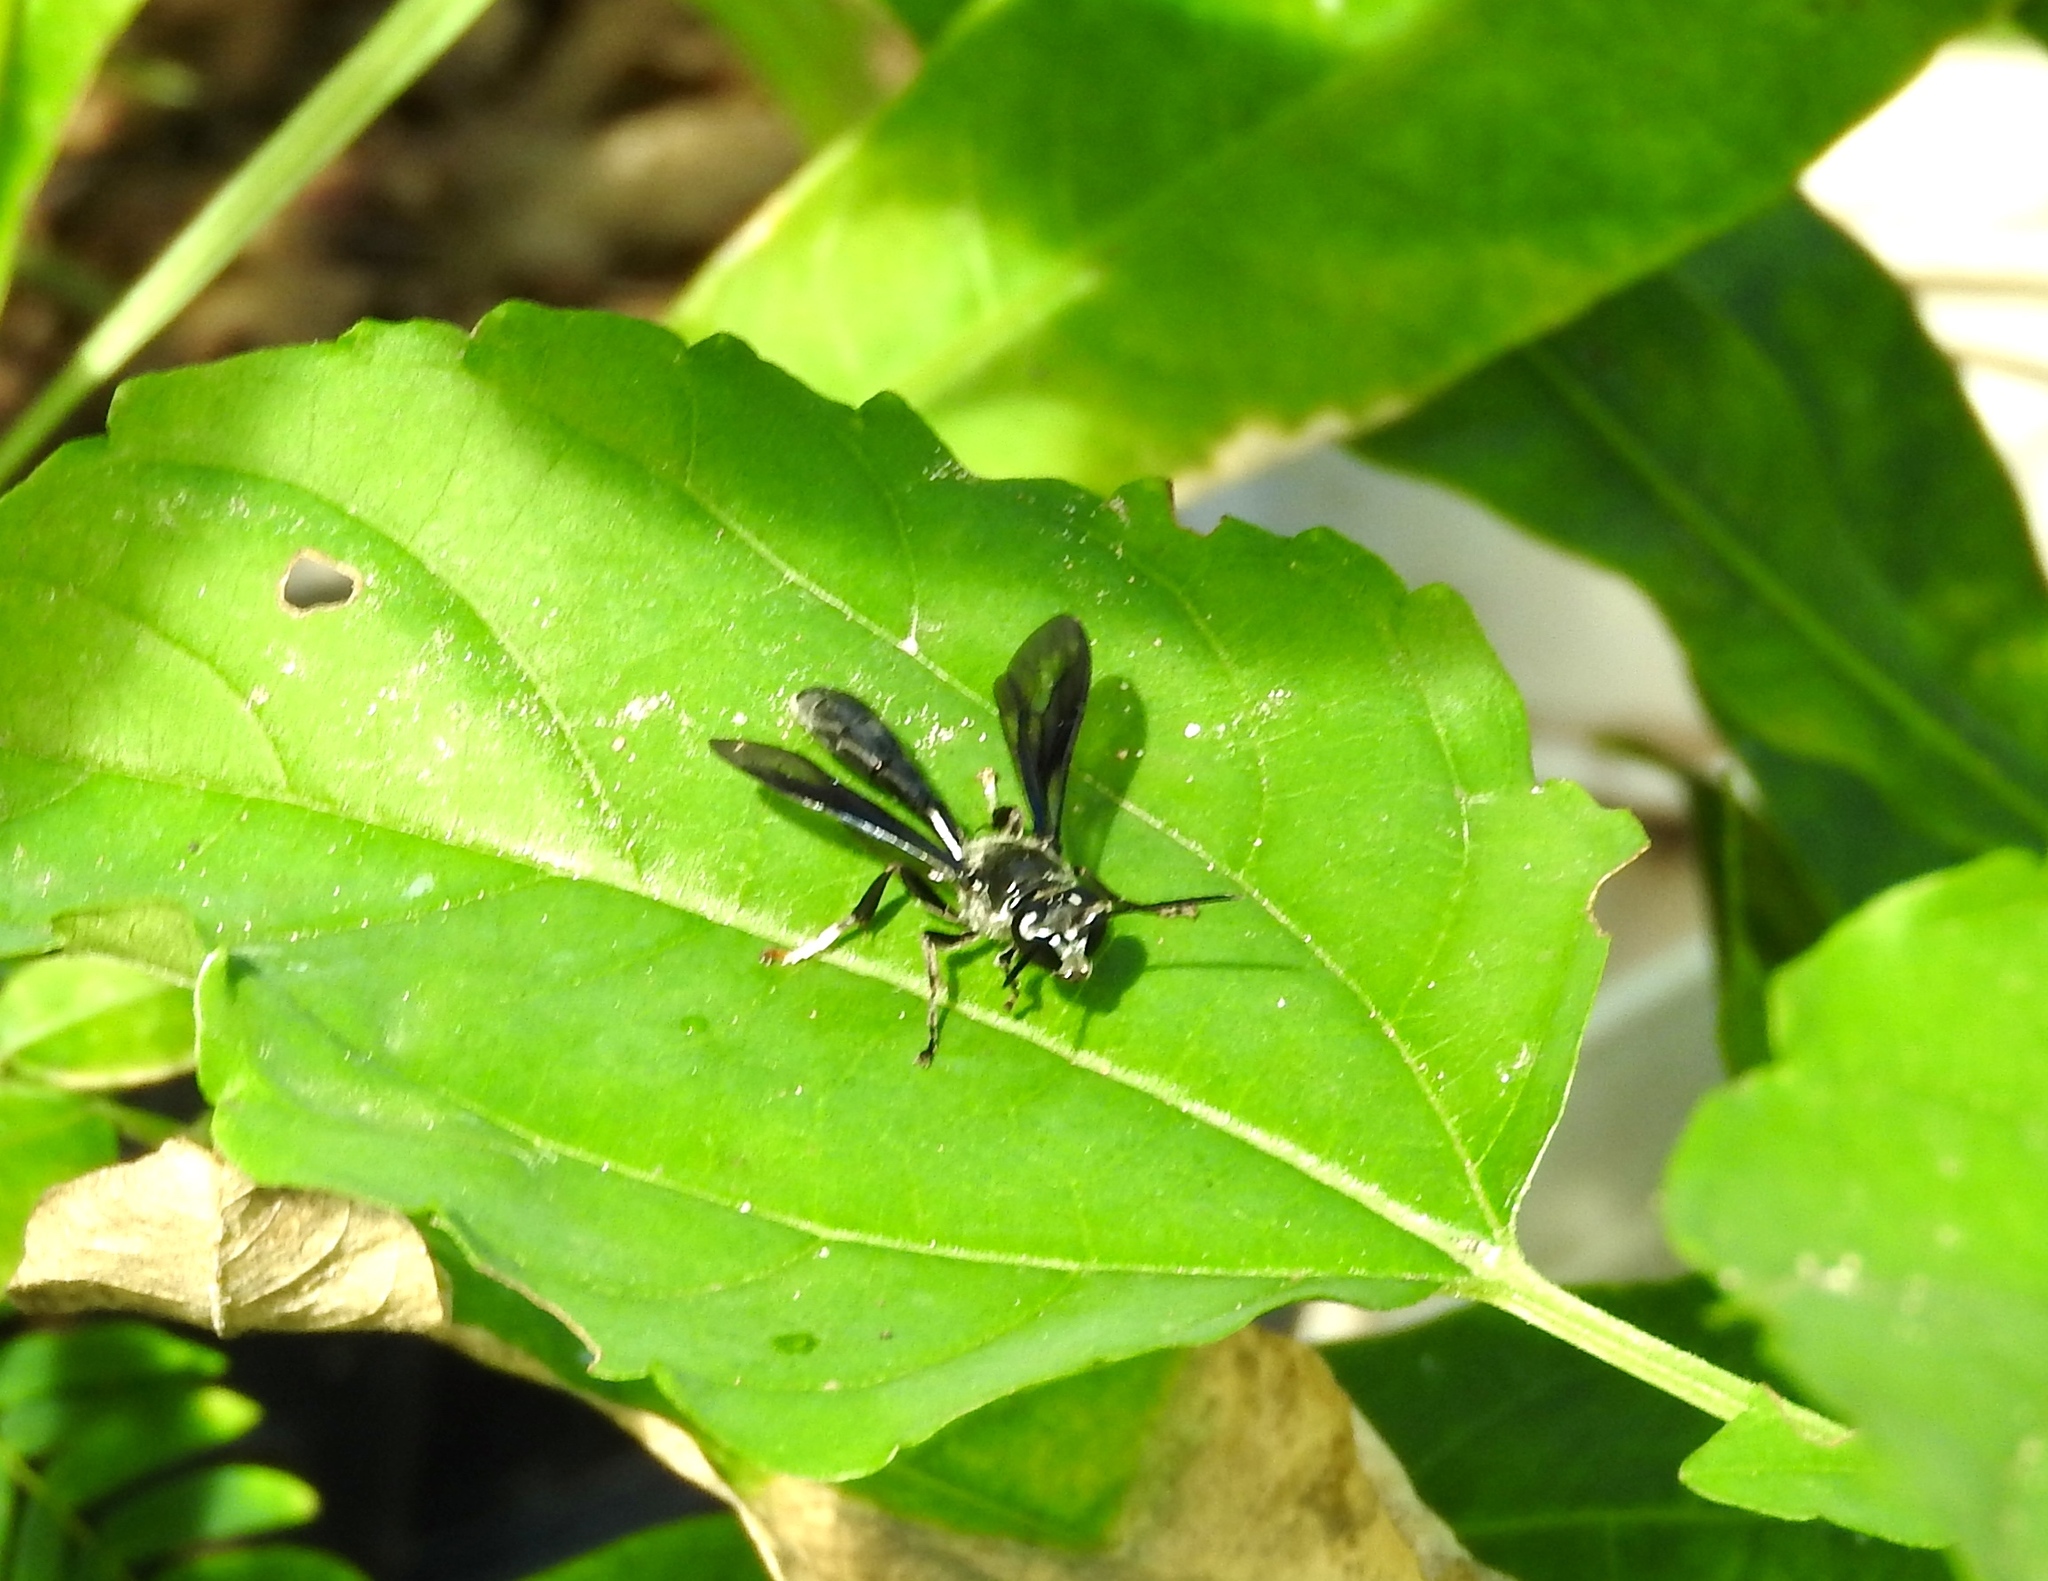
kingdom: Animalia
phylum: Arthropoda
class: Insecta
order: Hymenoptera
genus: Trypargilum
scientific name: Trypargilum
